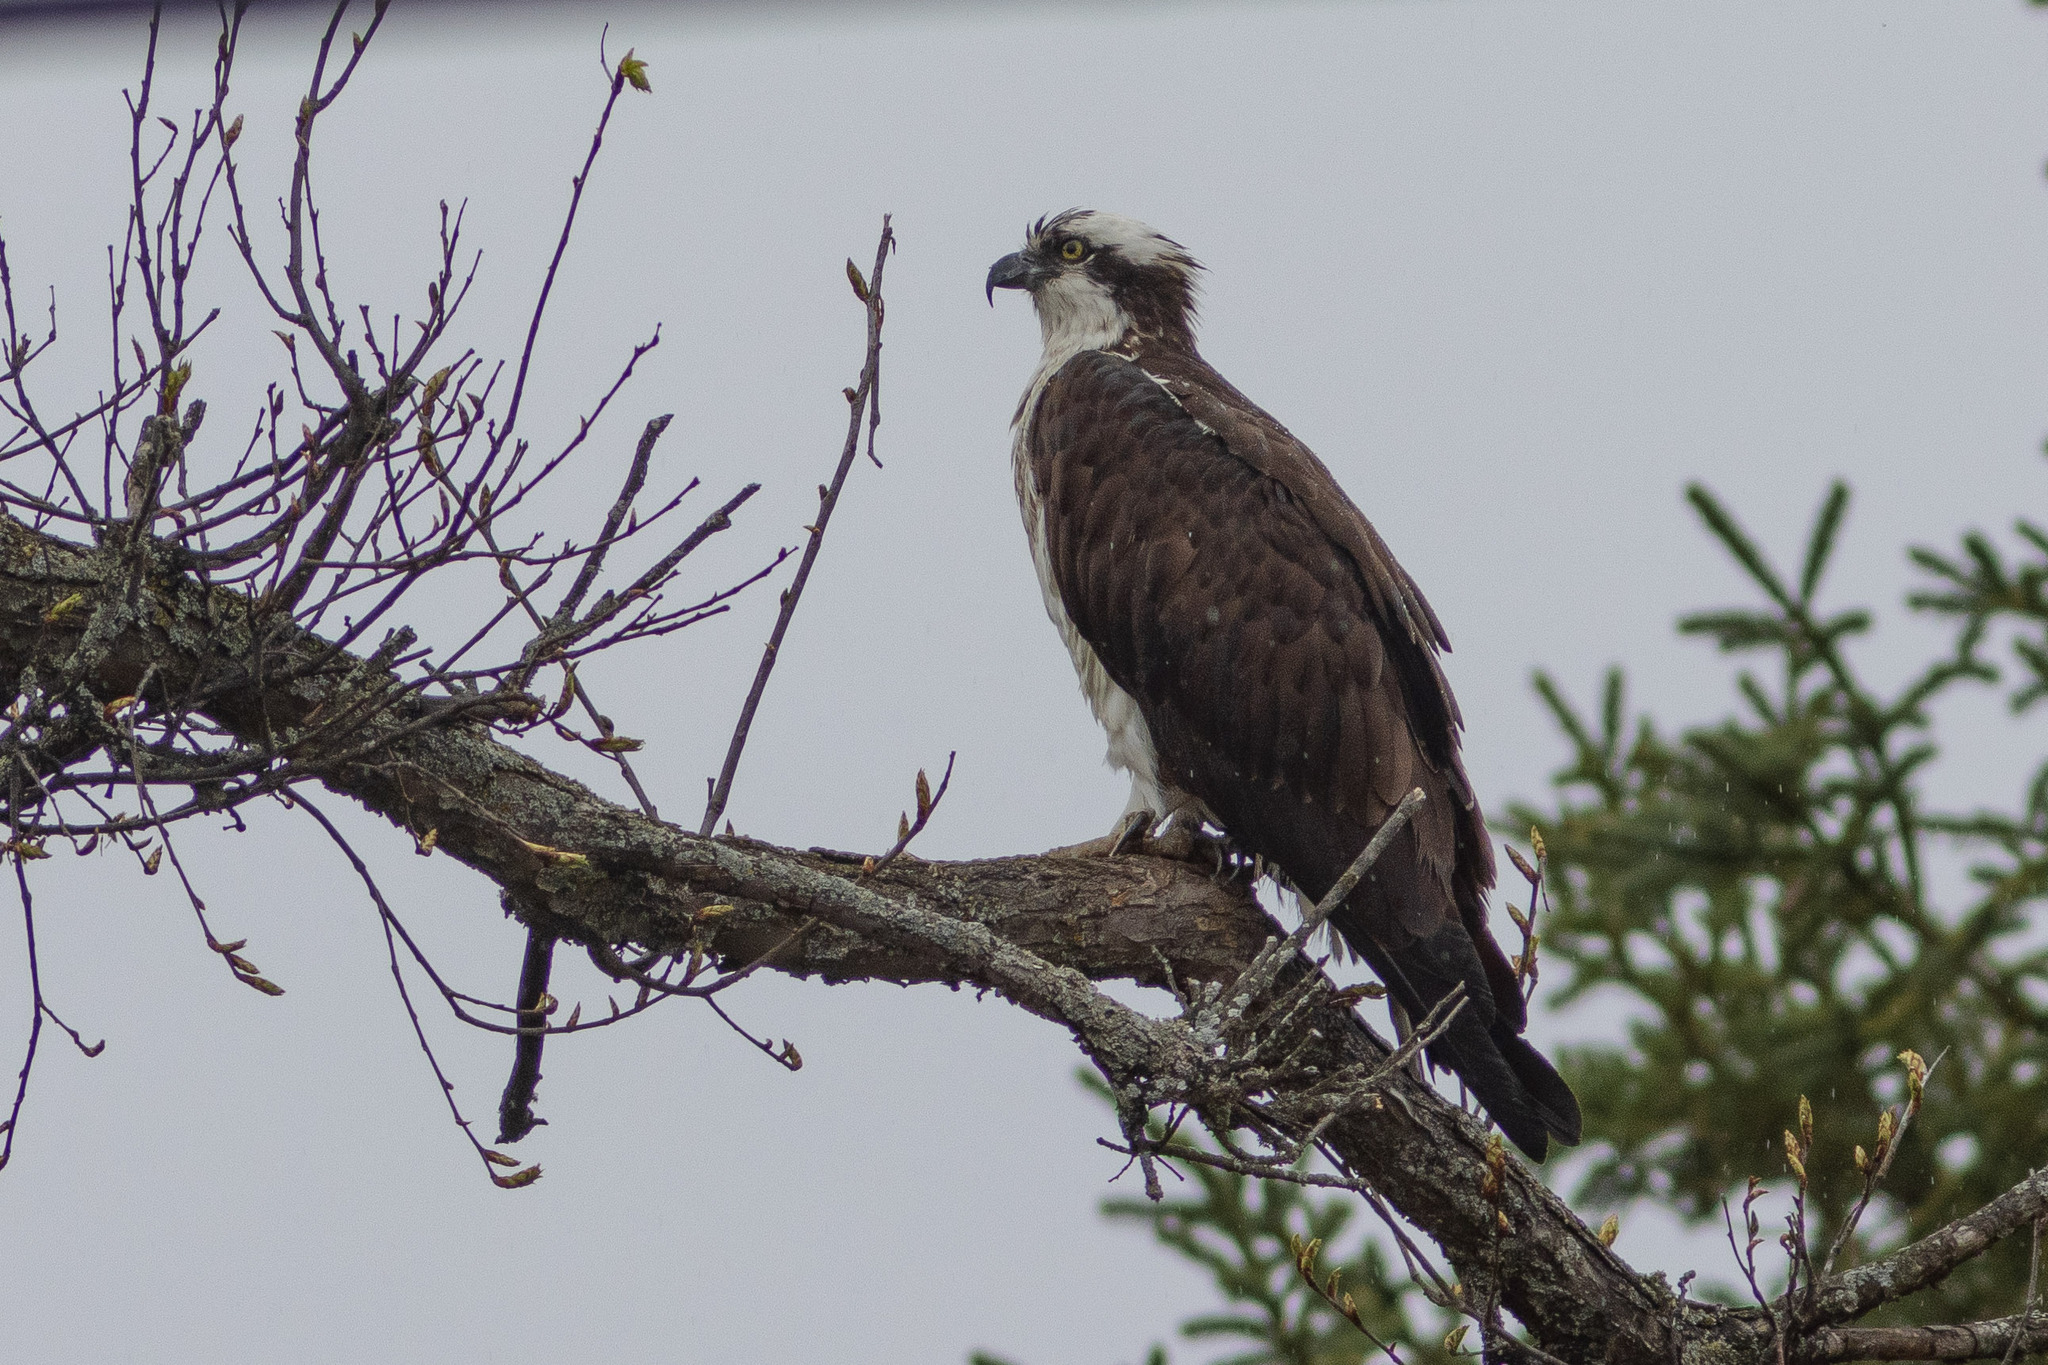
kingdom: Animalia
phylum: Chordata
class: Aves
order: Accipitriformes
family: Pandionidae
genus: Pandion
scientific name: Pandion haliaetus
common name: Osprey
